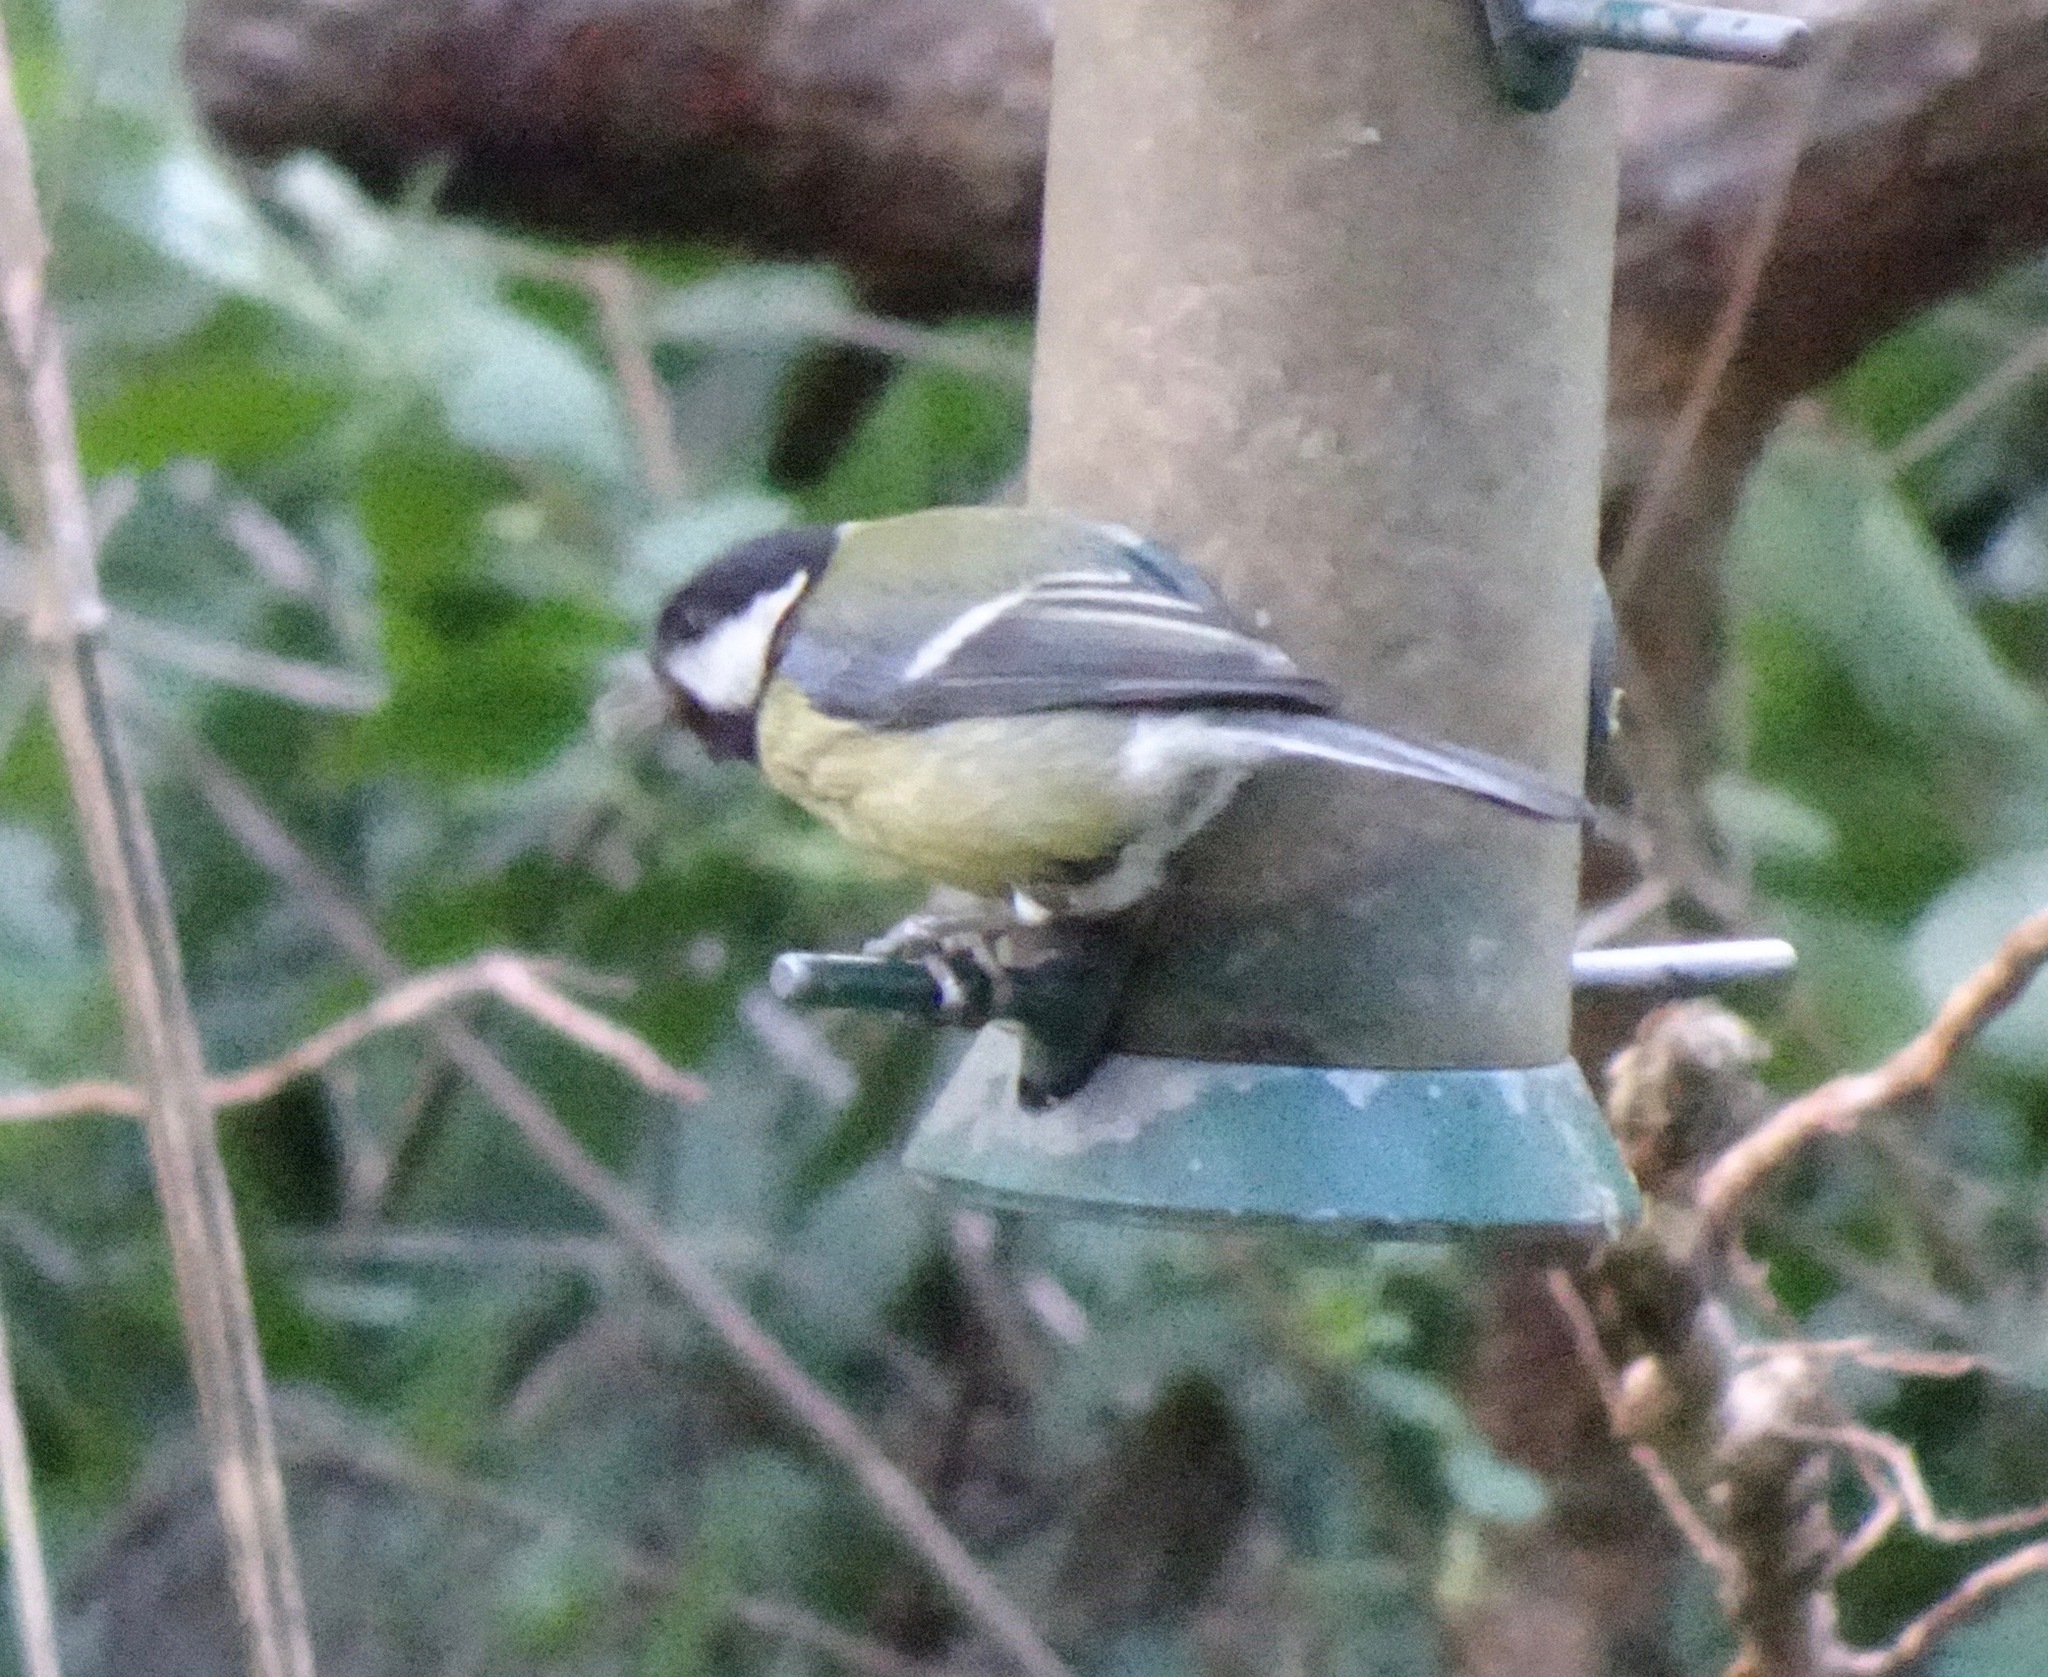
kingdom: Animalia
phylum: Chordata
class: Aves
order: Passeriformes
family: Paridae
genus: Parus
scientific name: Parus major
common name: Great tit
